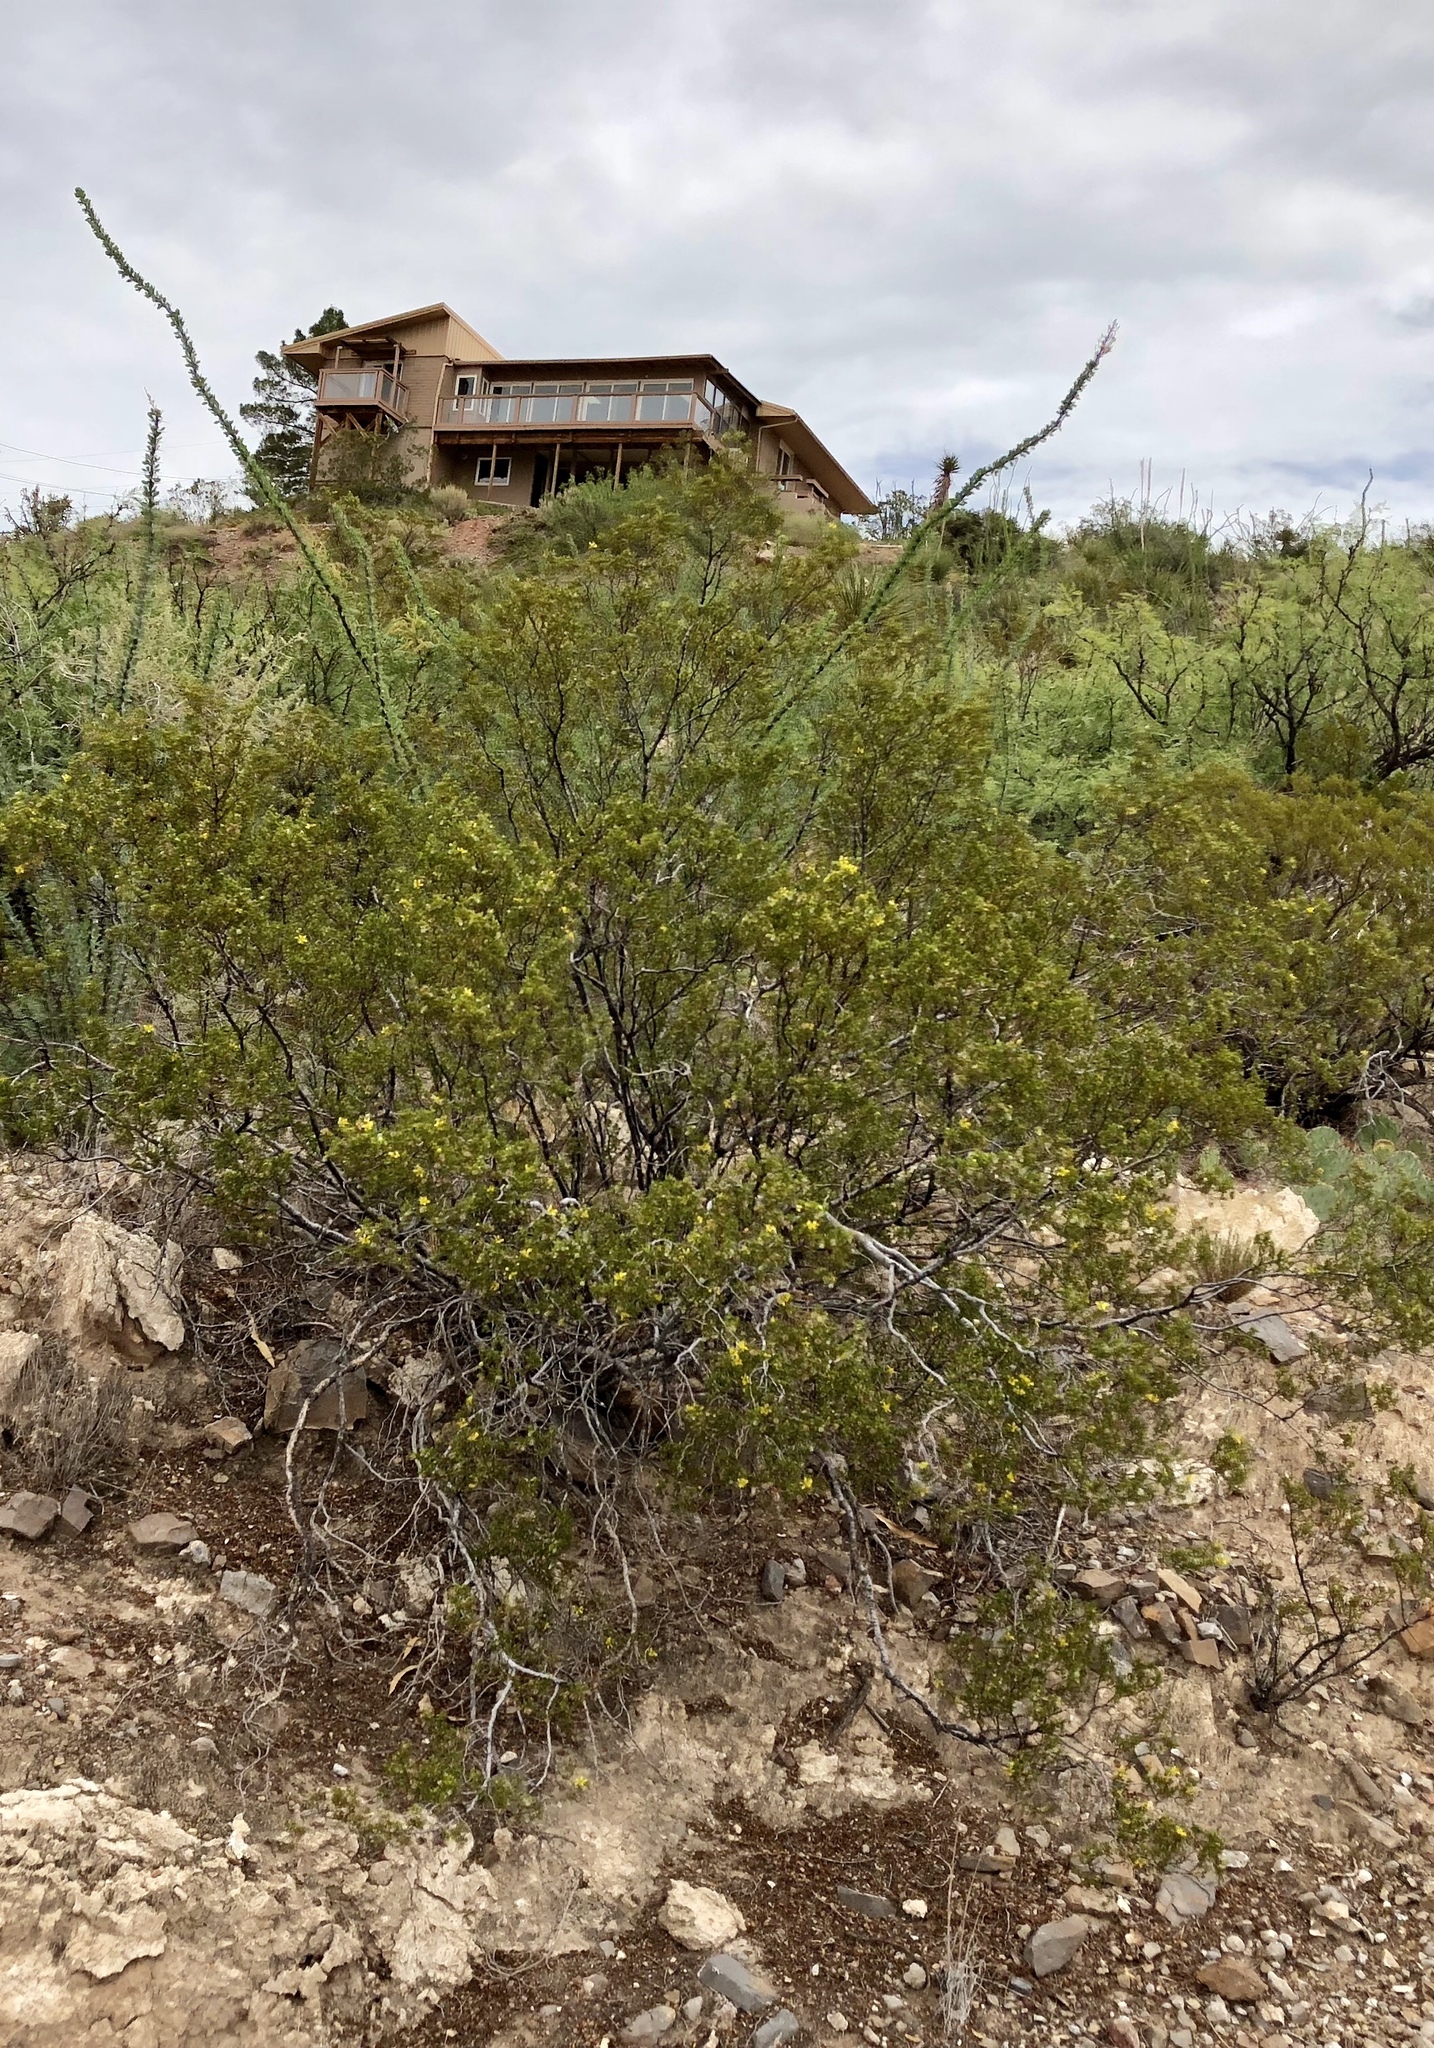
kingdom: Plantae
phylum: Tracheophyta
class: Magnoliopsida
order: Zygophyllales
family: Zygophyllaceae
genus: Larrea
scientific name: Larrea tridentata
